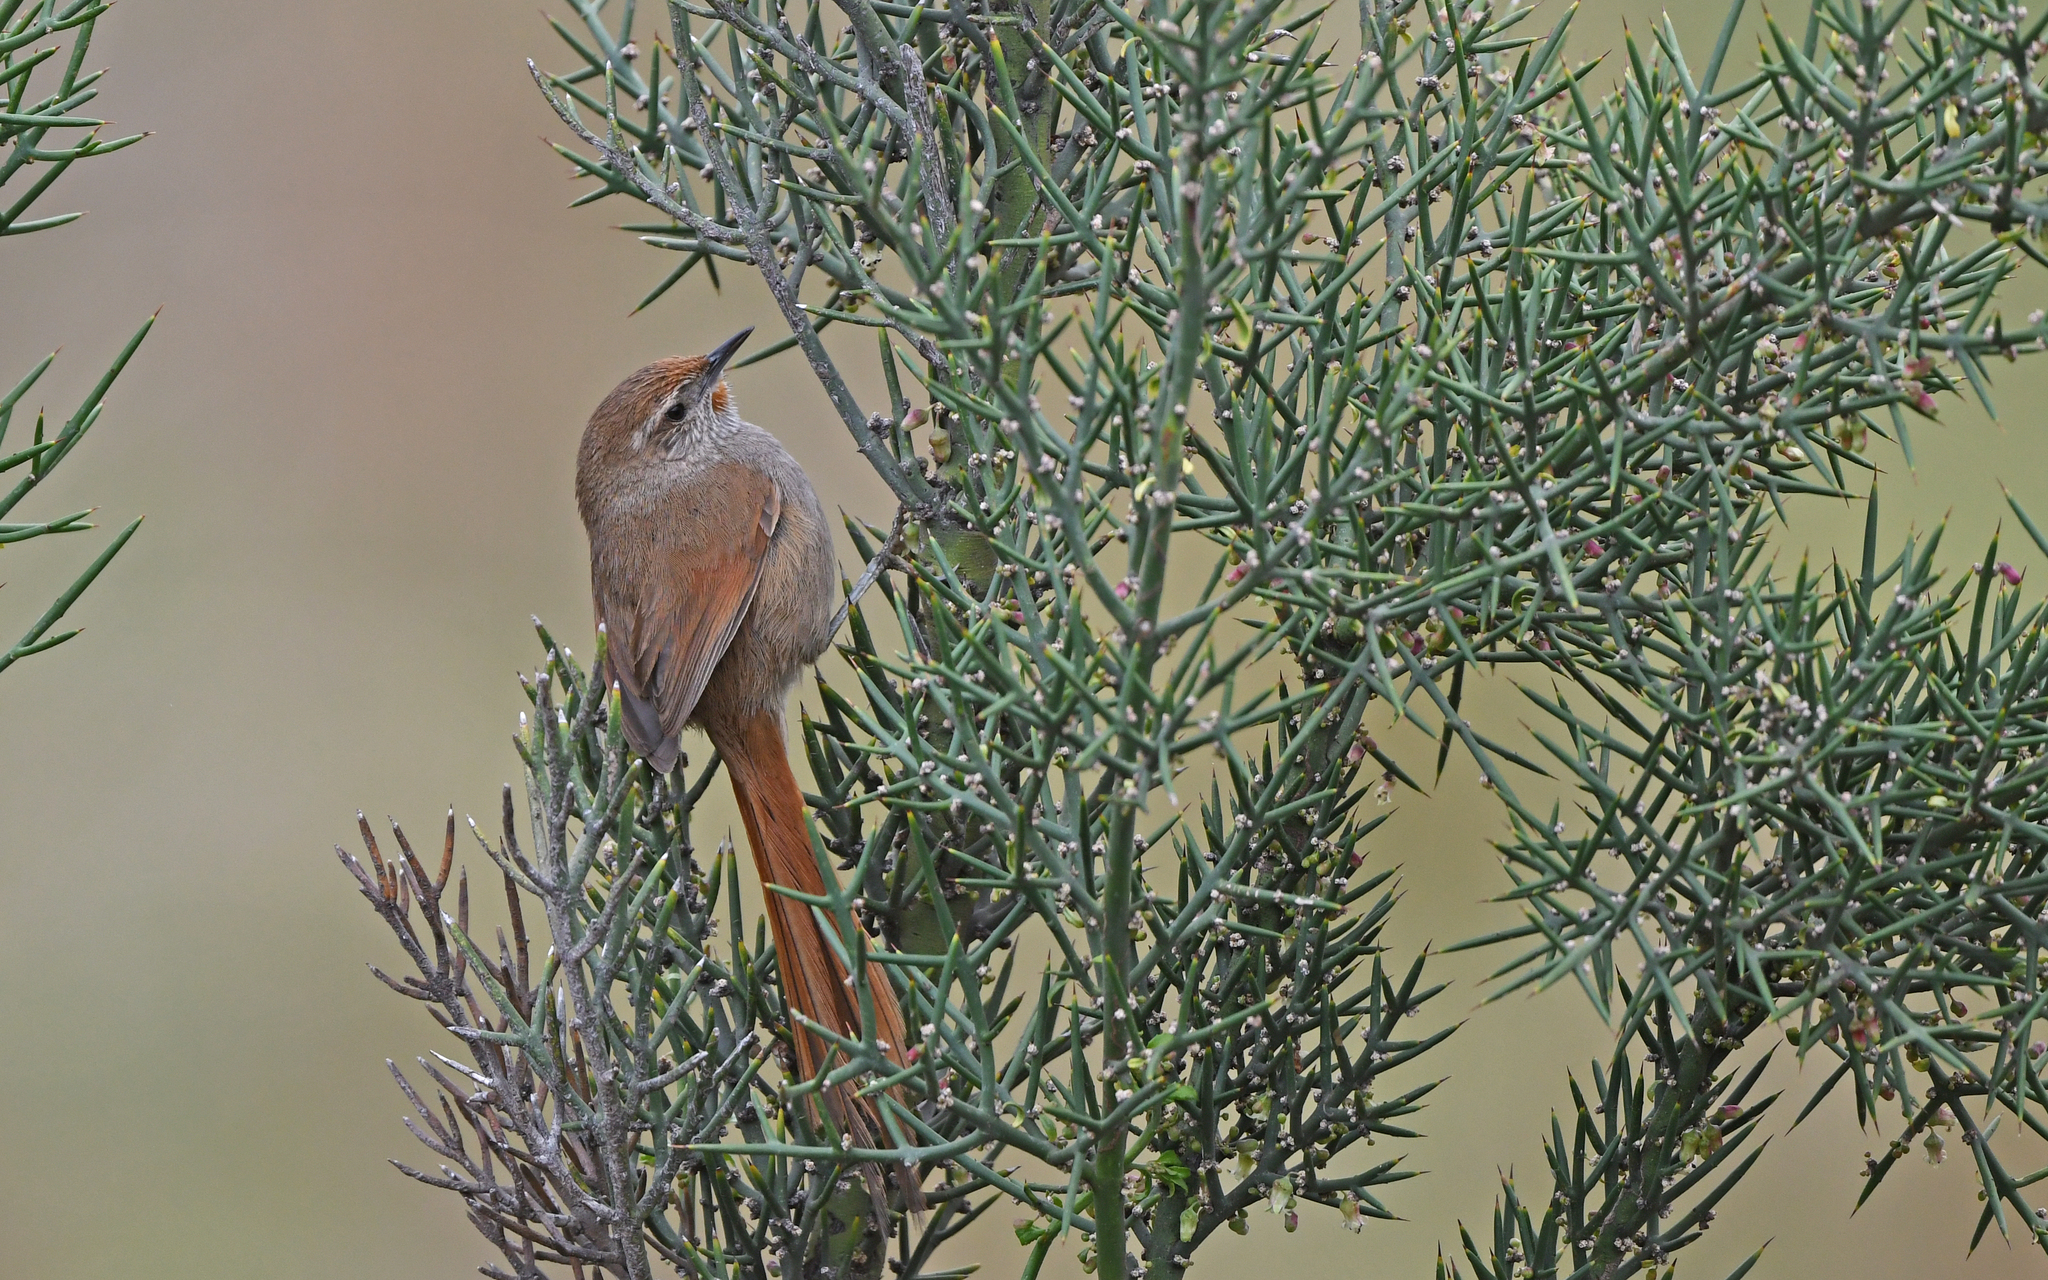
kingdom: Animalia
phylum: Chordata
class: Aves
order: Passeriformes
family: Furnariidae
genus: Asthenes
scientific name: Asthenes ottonis
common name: Rusty-fronted canastero
